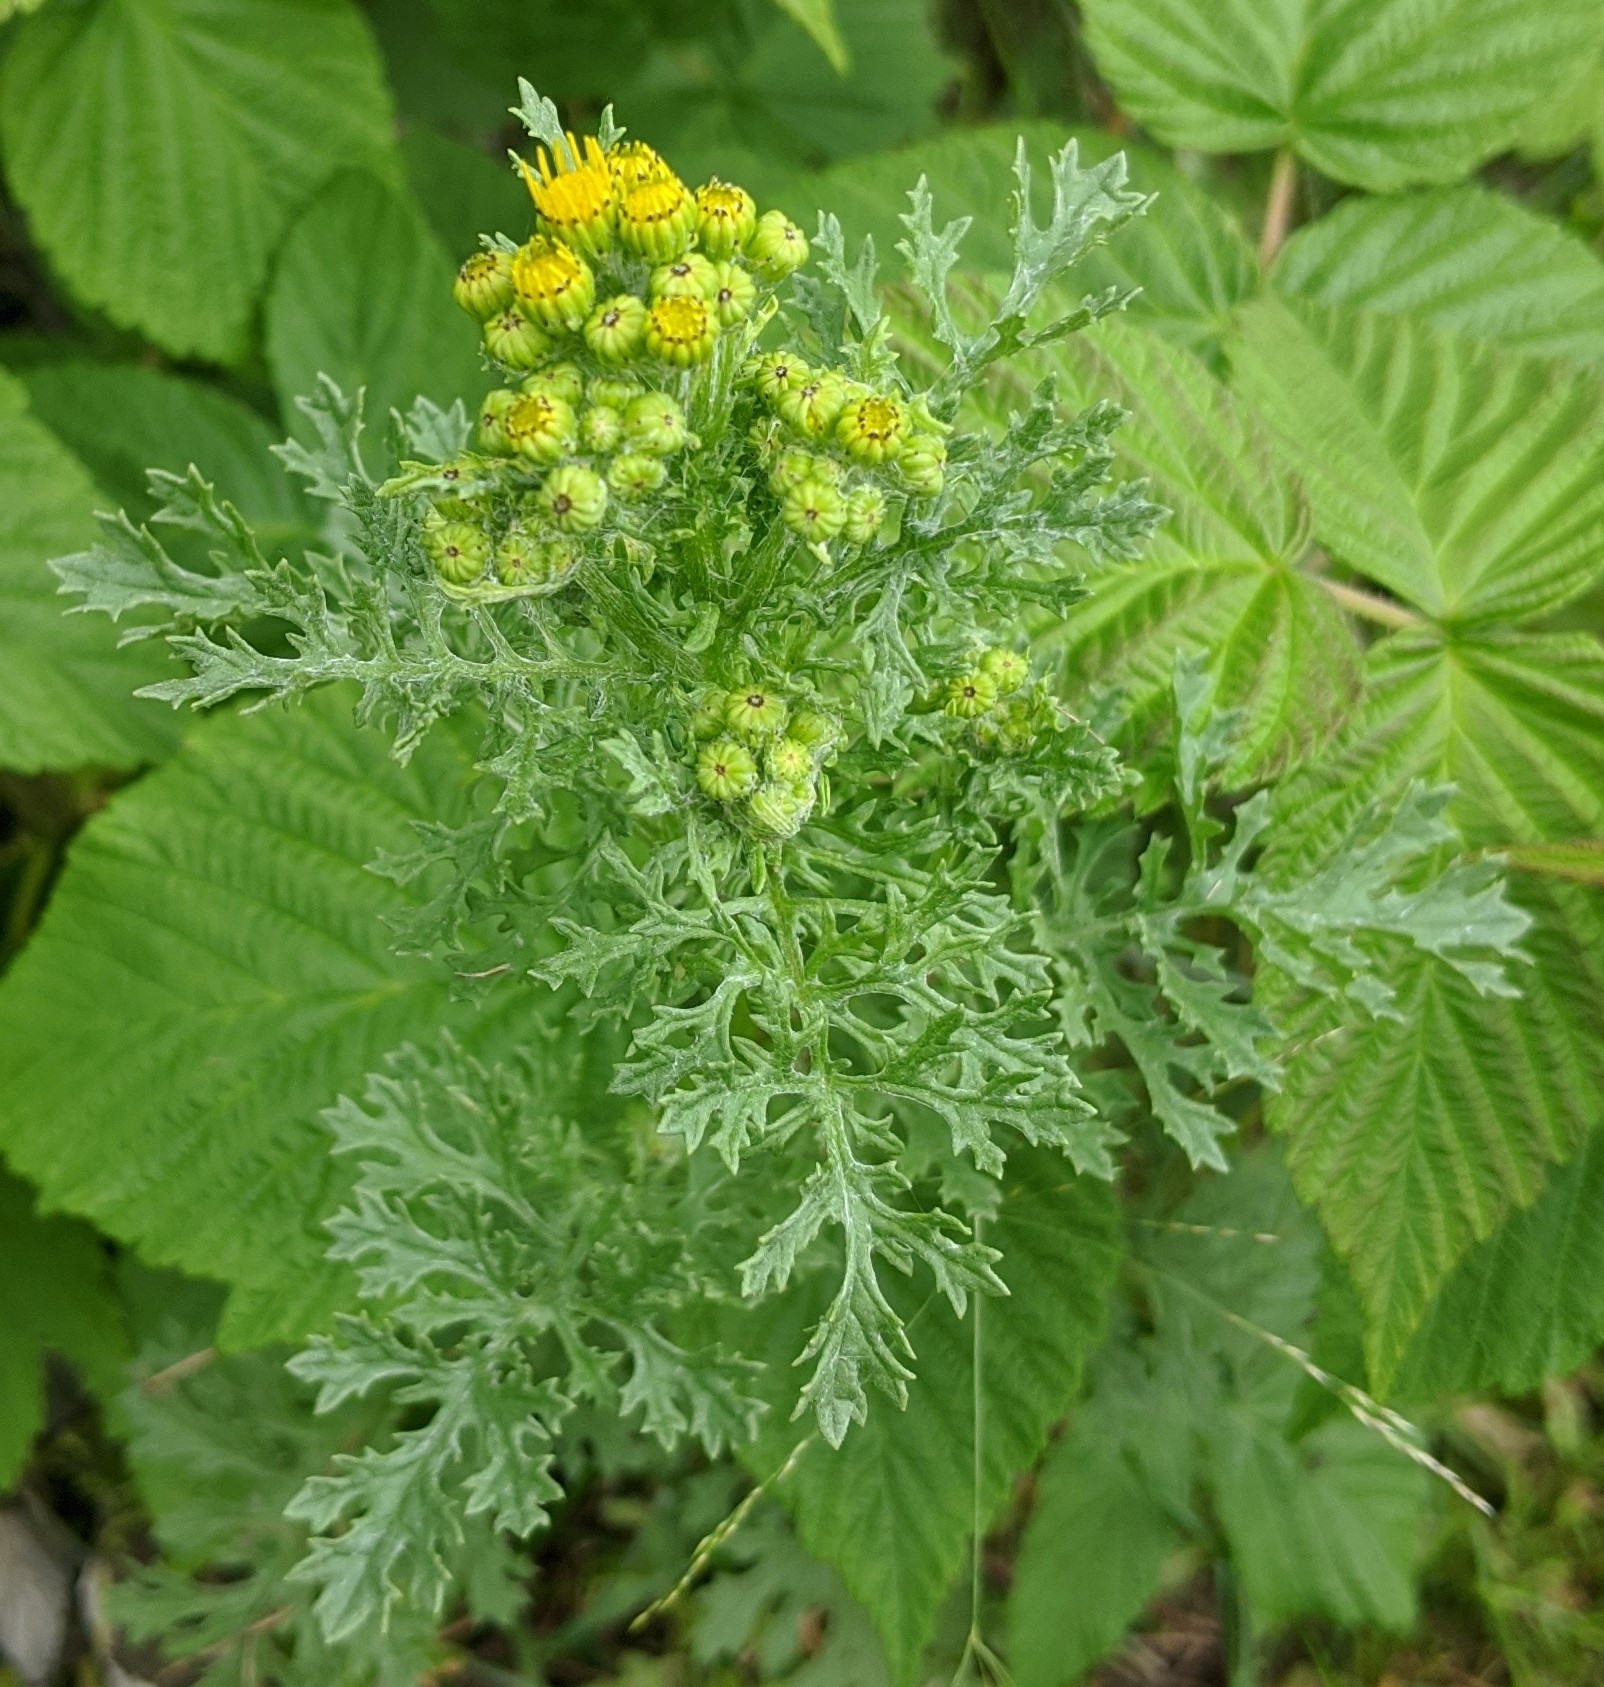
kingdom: Plantae
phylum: Tracheophyta
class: Magnoliopsida
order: Asterales
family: Asteraceae
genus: Jacobaea
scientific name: Jacobaea vulgaris
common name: Stinking willie
